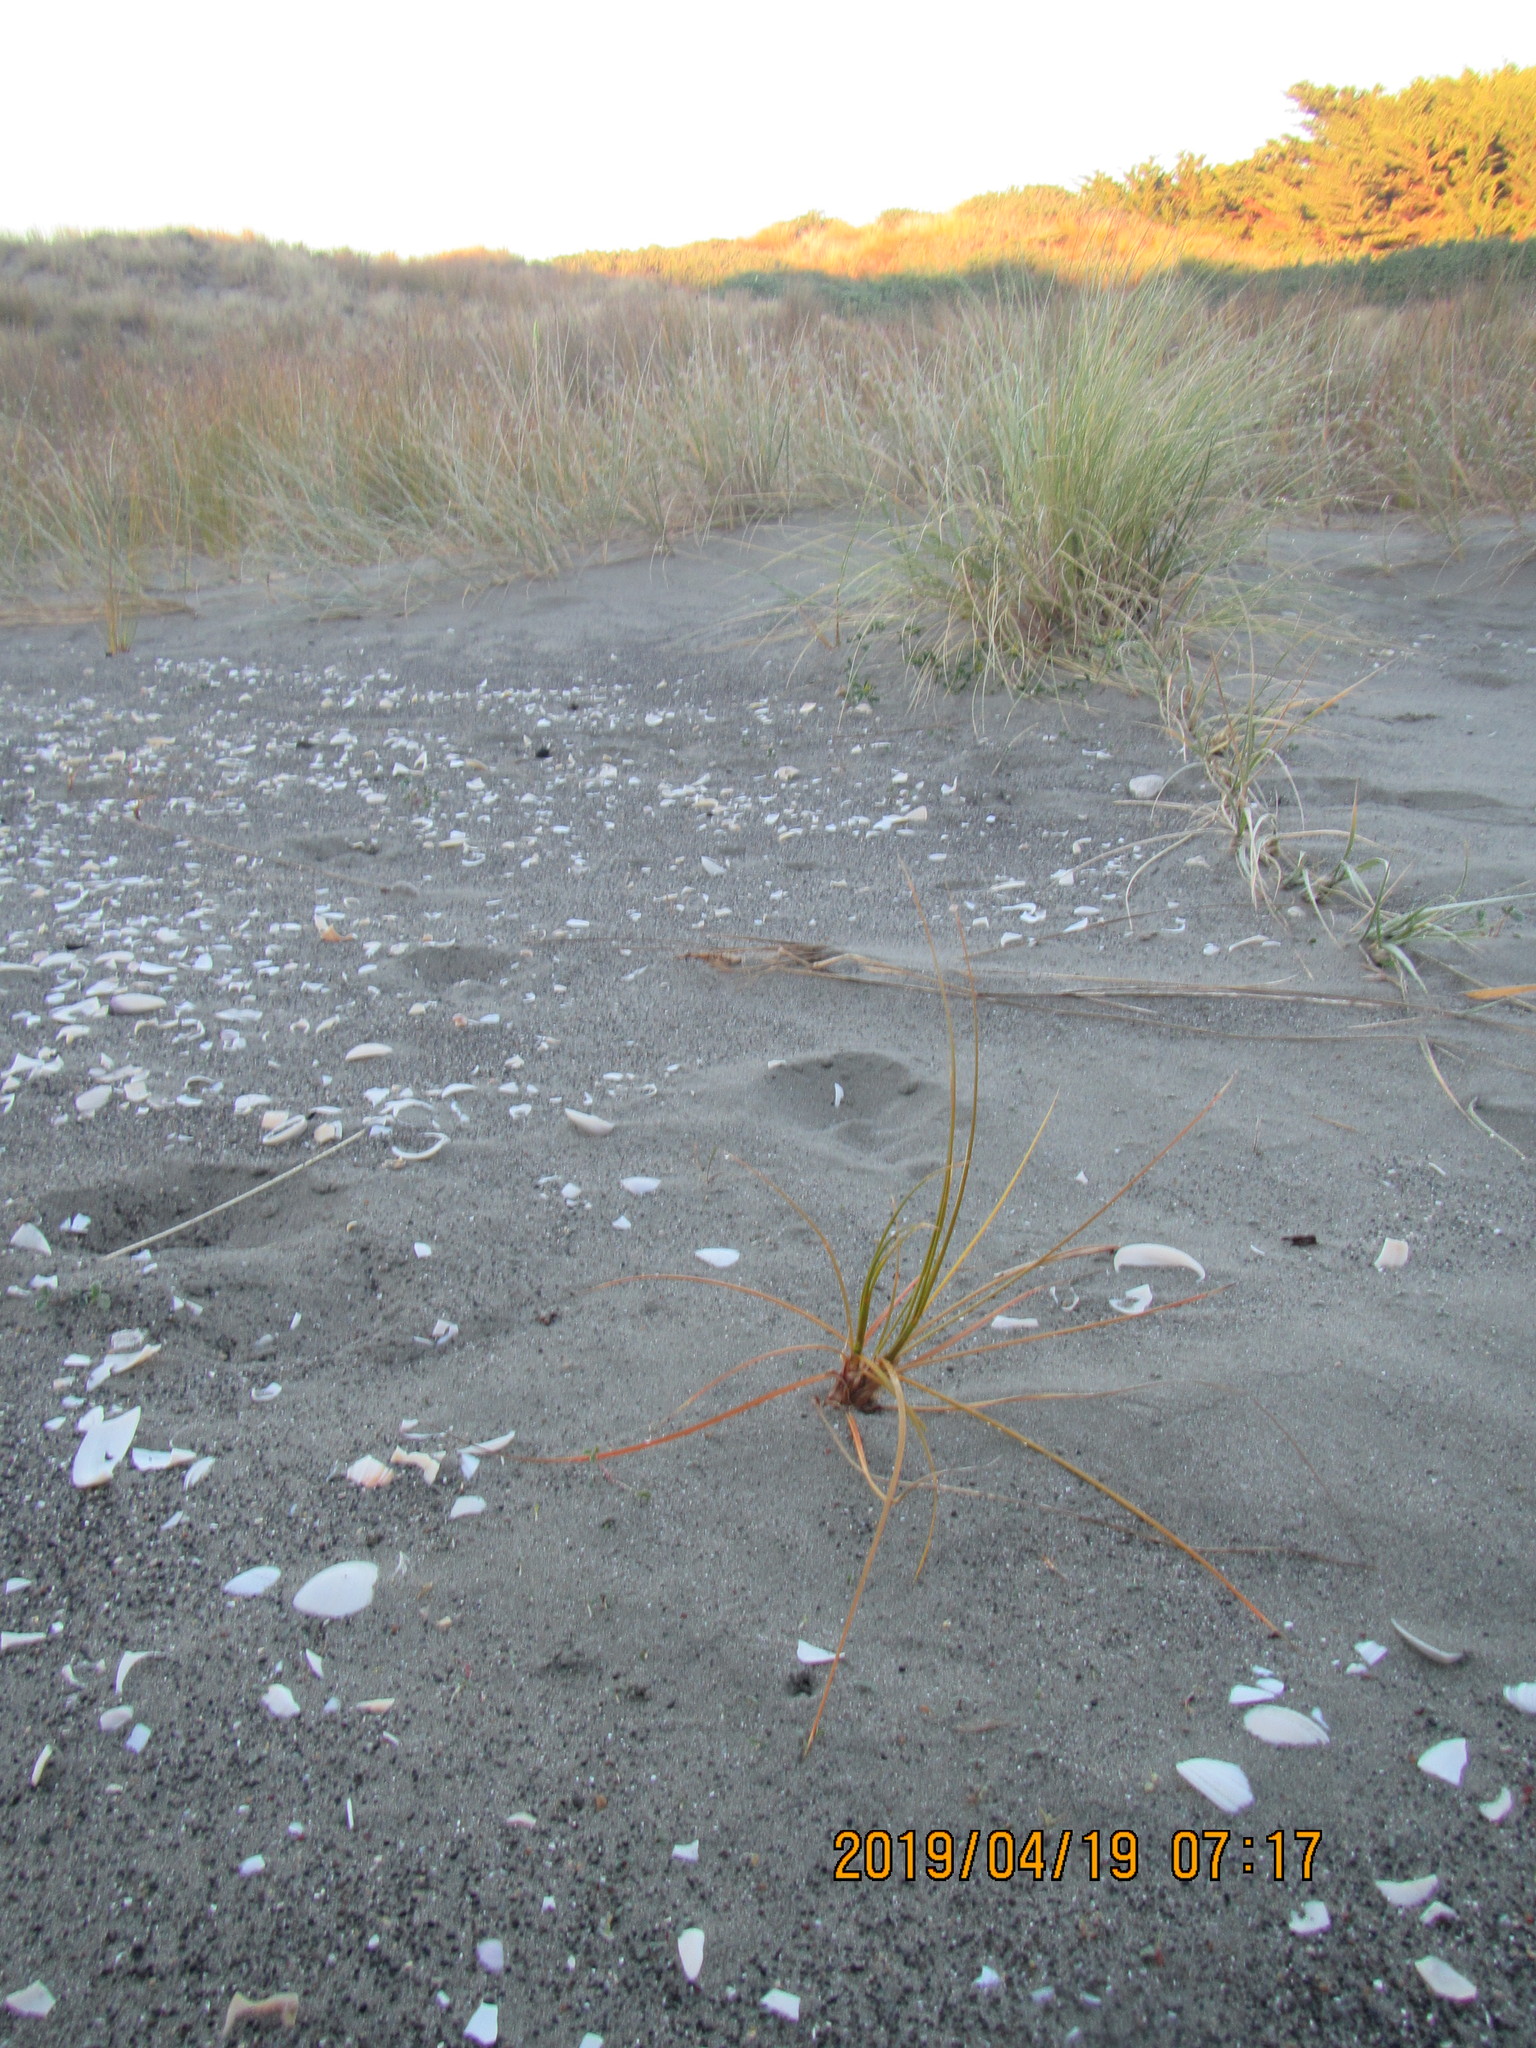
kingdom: Plantae
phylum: Tracheophyta
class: Liliopsida
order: Poales
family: Cyperaceae
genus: Ficinia
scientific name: Ficinia spiralis
